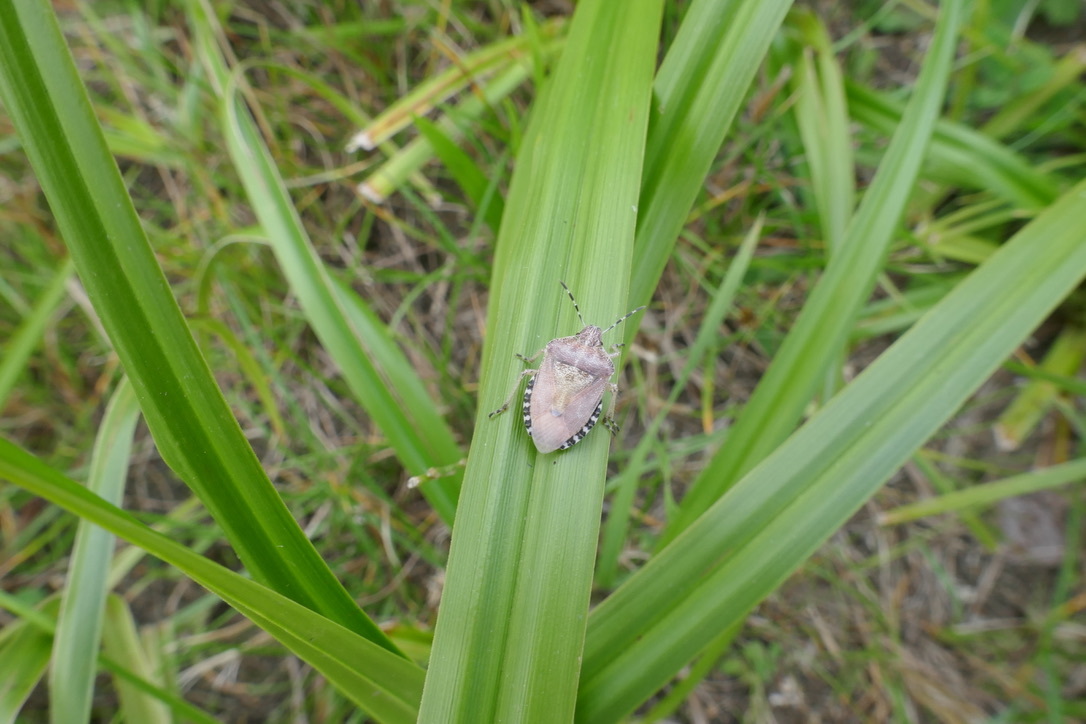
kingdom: Animalia
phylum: Arthropoda
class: Insecta
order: Hemiptera
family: Pentatomidae
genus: Dolycoris
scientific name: Dolycoris baccarum
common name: Sloe bug
